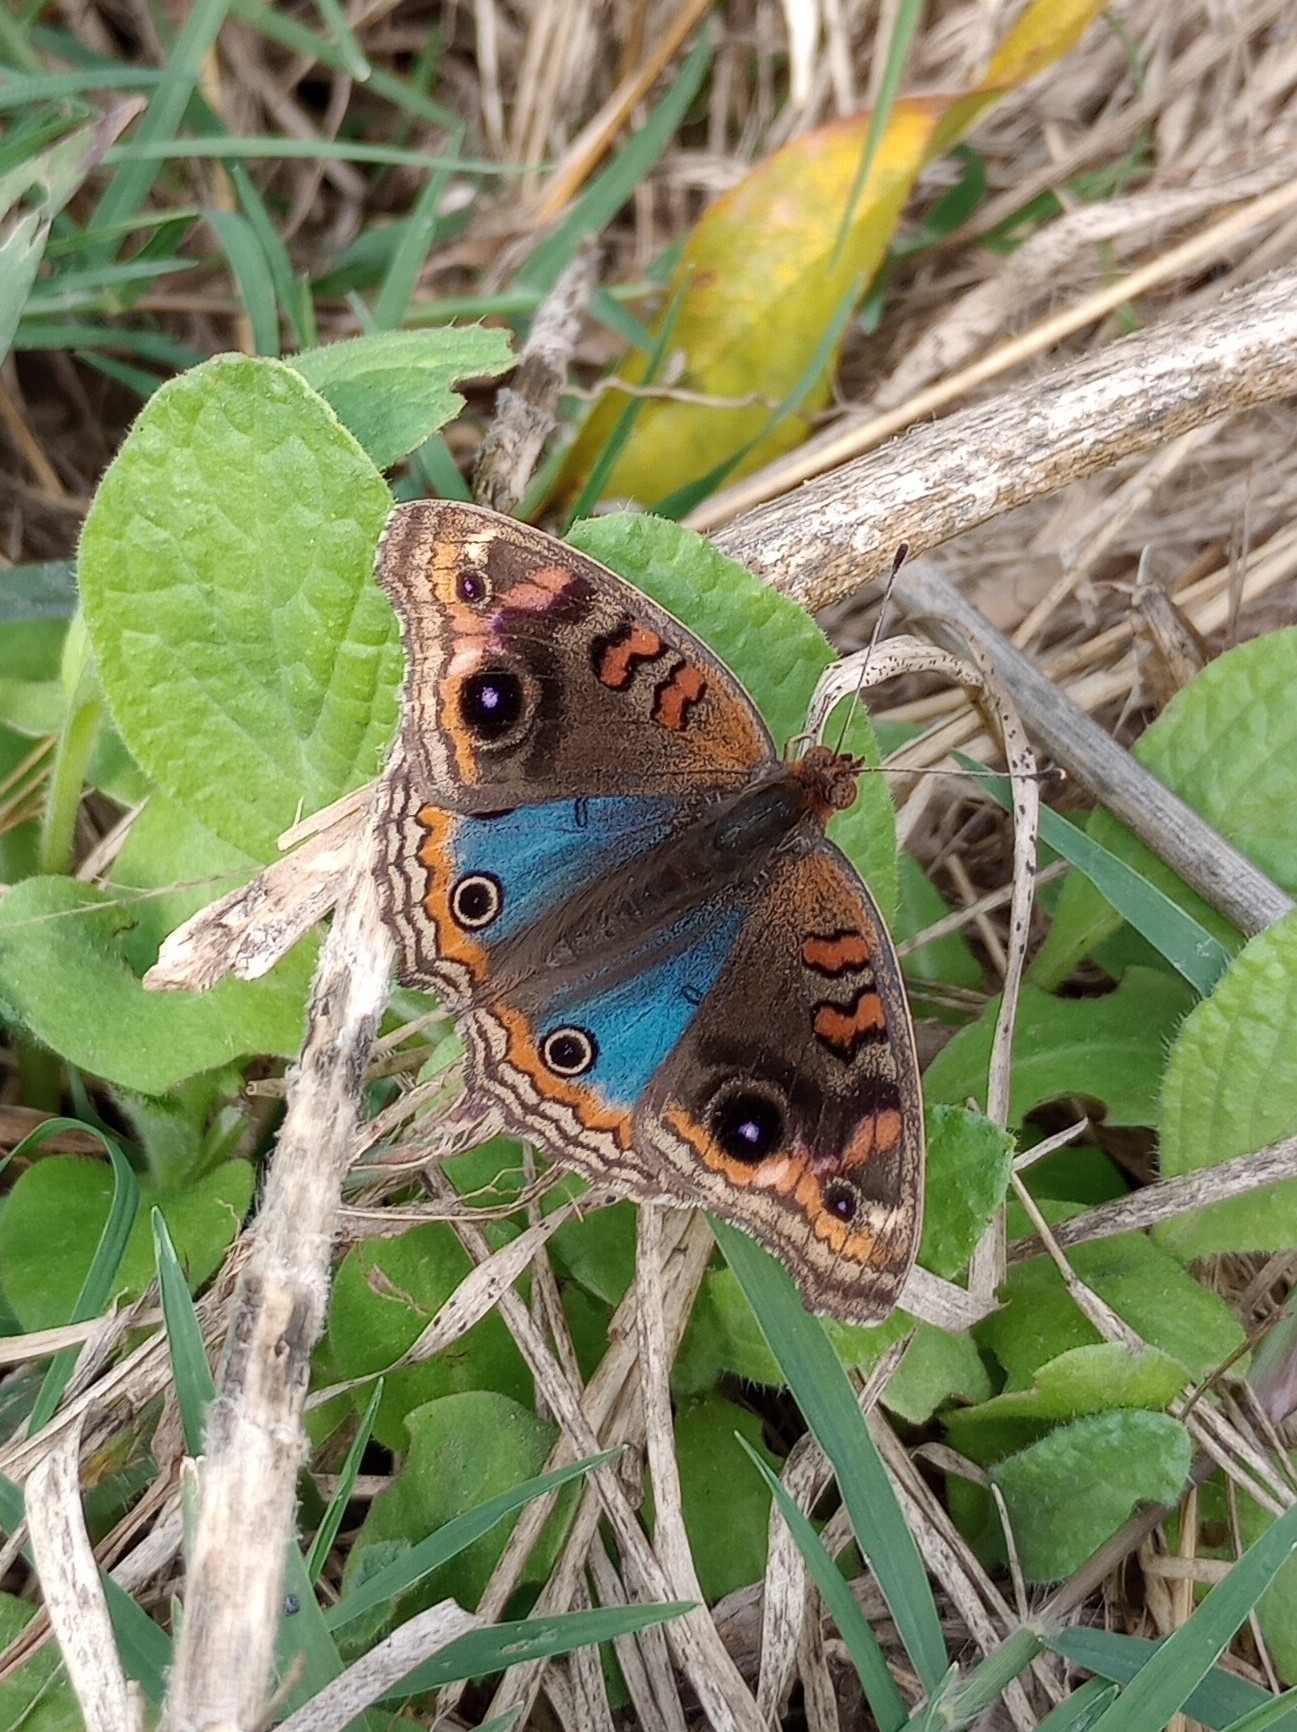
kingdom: Animalia
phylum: Arthropoda
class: Insecta
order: Lepidoptera
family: Nymphalidae
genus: Junonia
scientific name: Junonia lavinia
